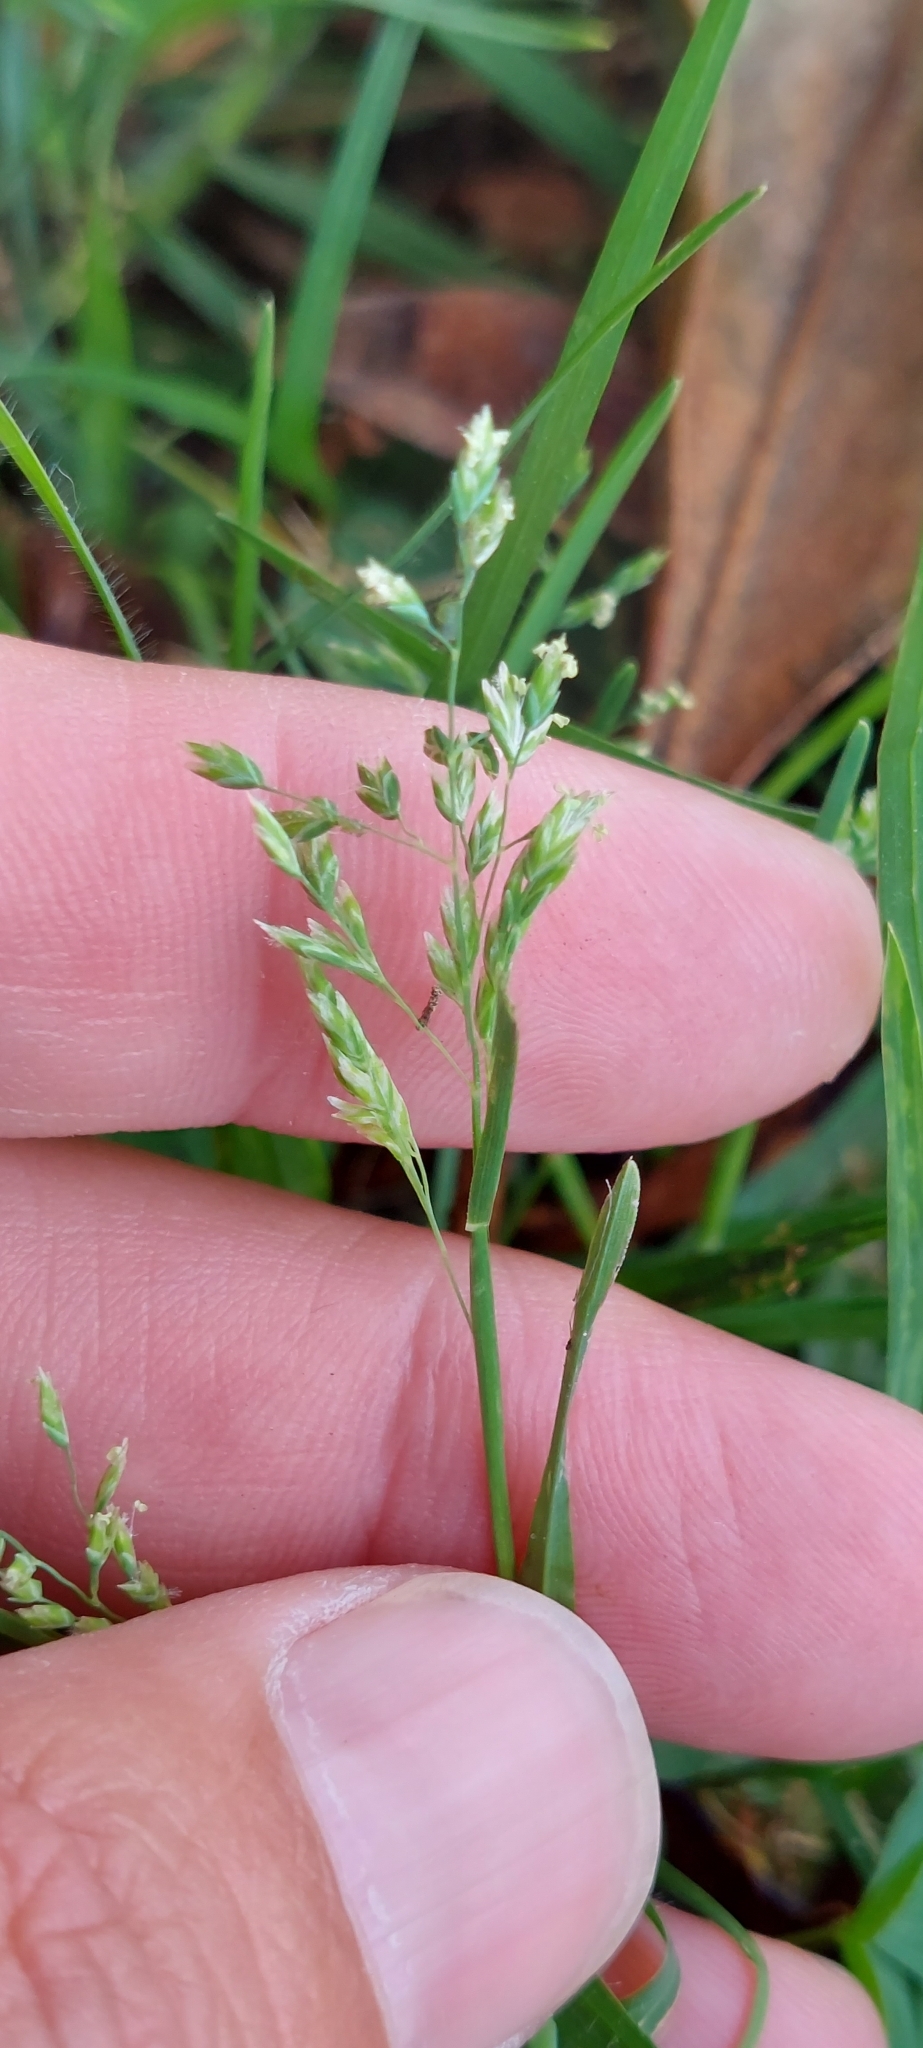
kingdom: Plantae
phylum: Tracheophyta
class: Liliopsida
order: Poales
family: Poaceae
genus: Poa
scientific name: Poa annua
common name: Annual bluegrass
